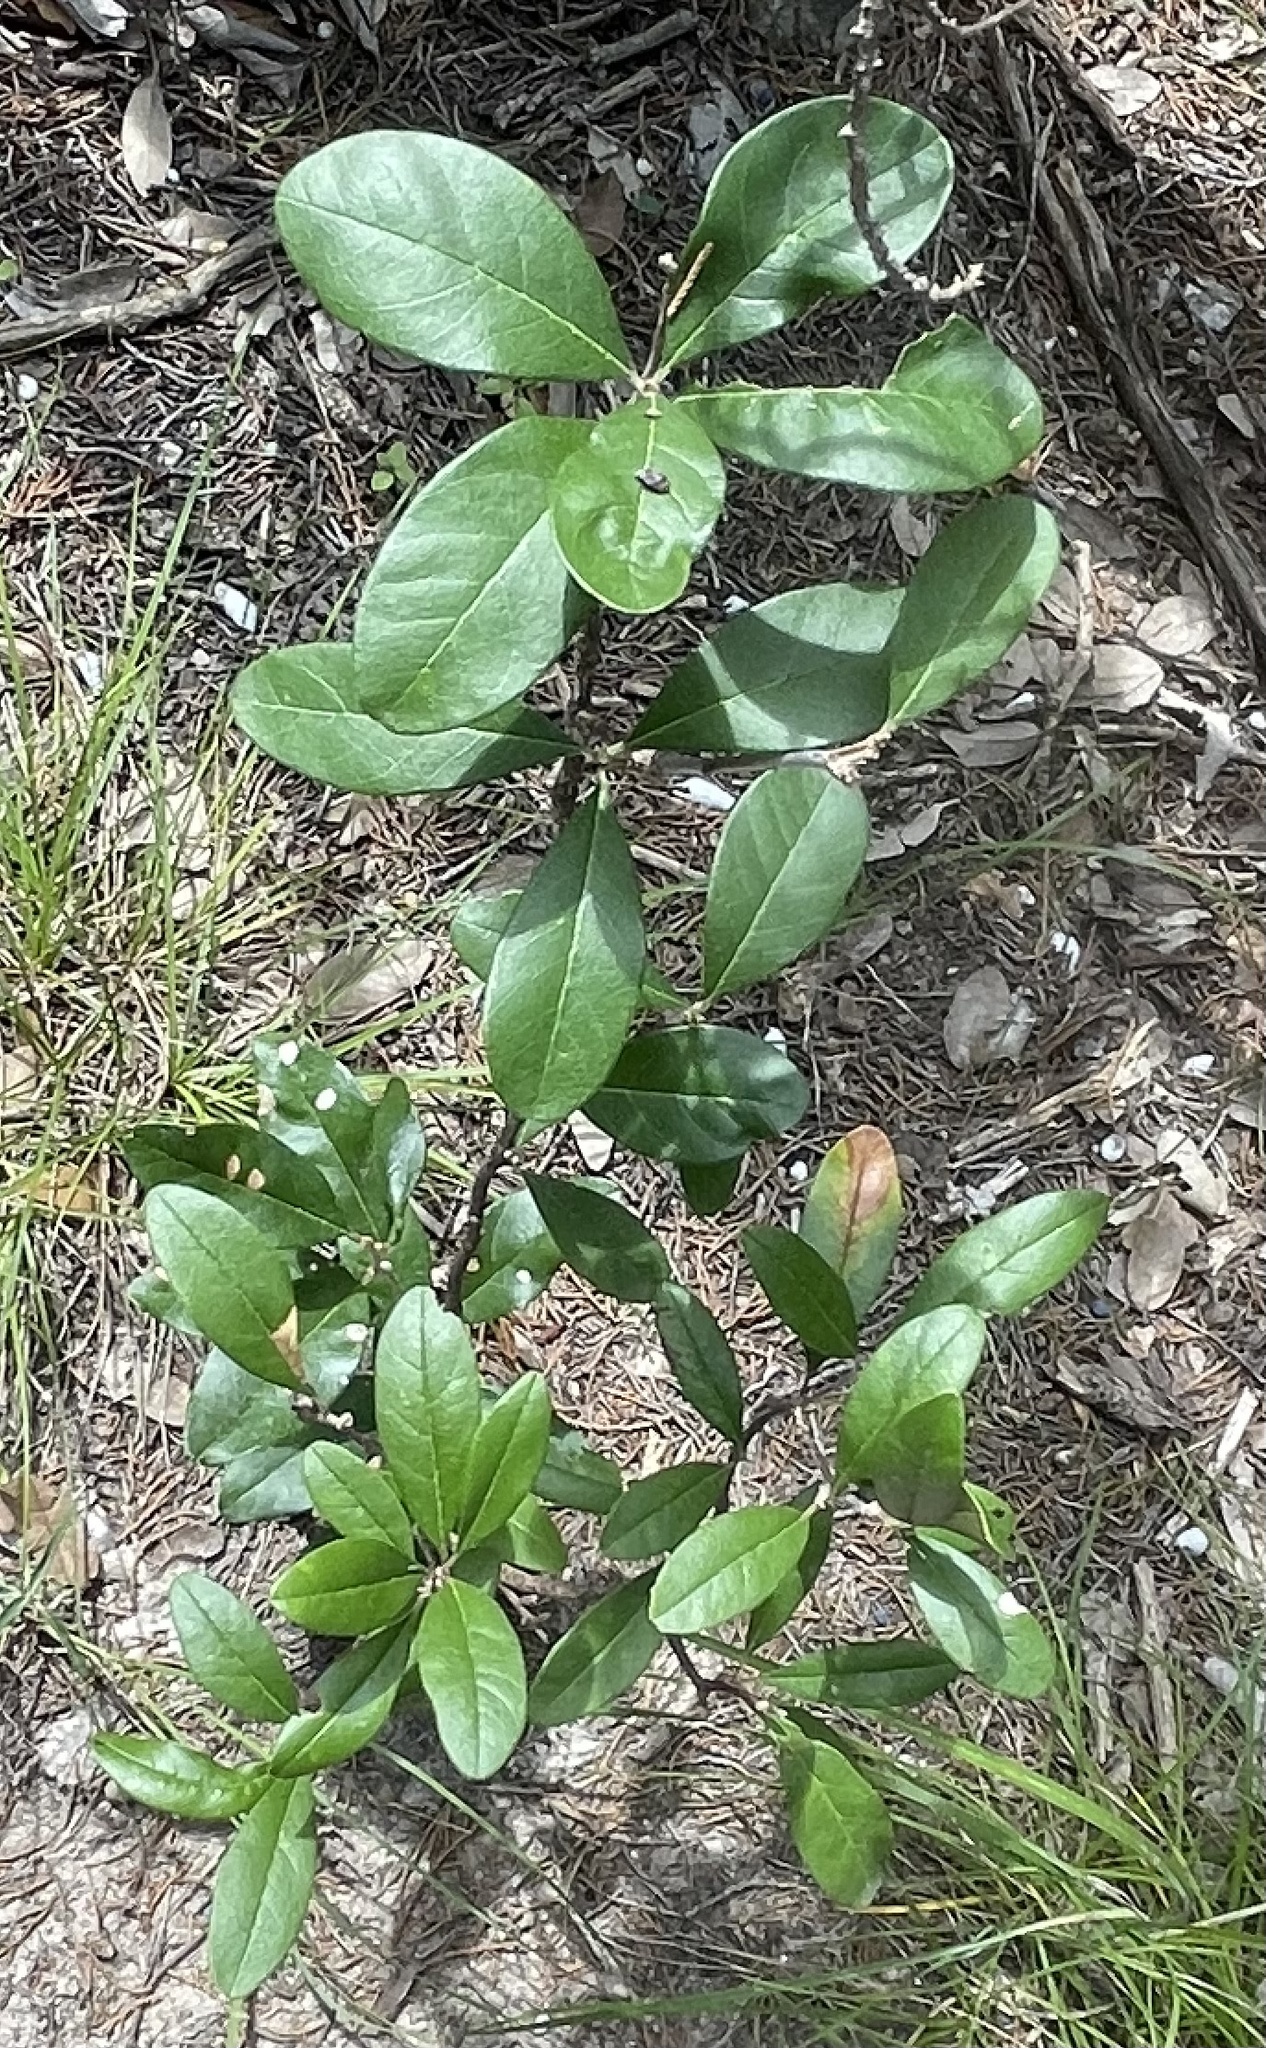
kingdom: Plantae
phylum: Tracheophyta
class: Magnoliopsida
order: Ericales
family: Sapotaceae
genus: Sideroxylon
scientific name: Sideroxylon lanuginosum
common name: Chittamwood
